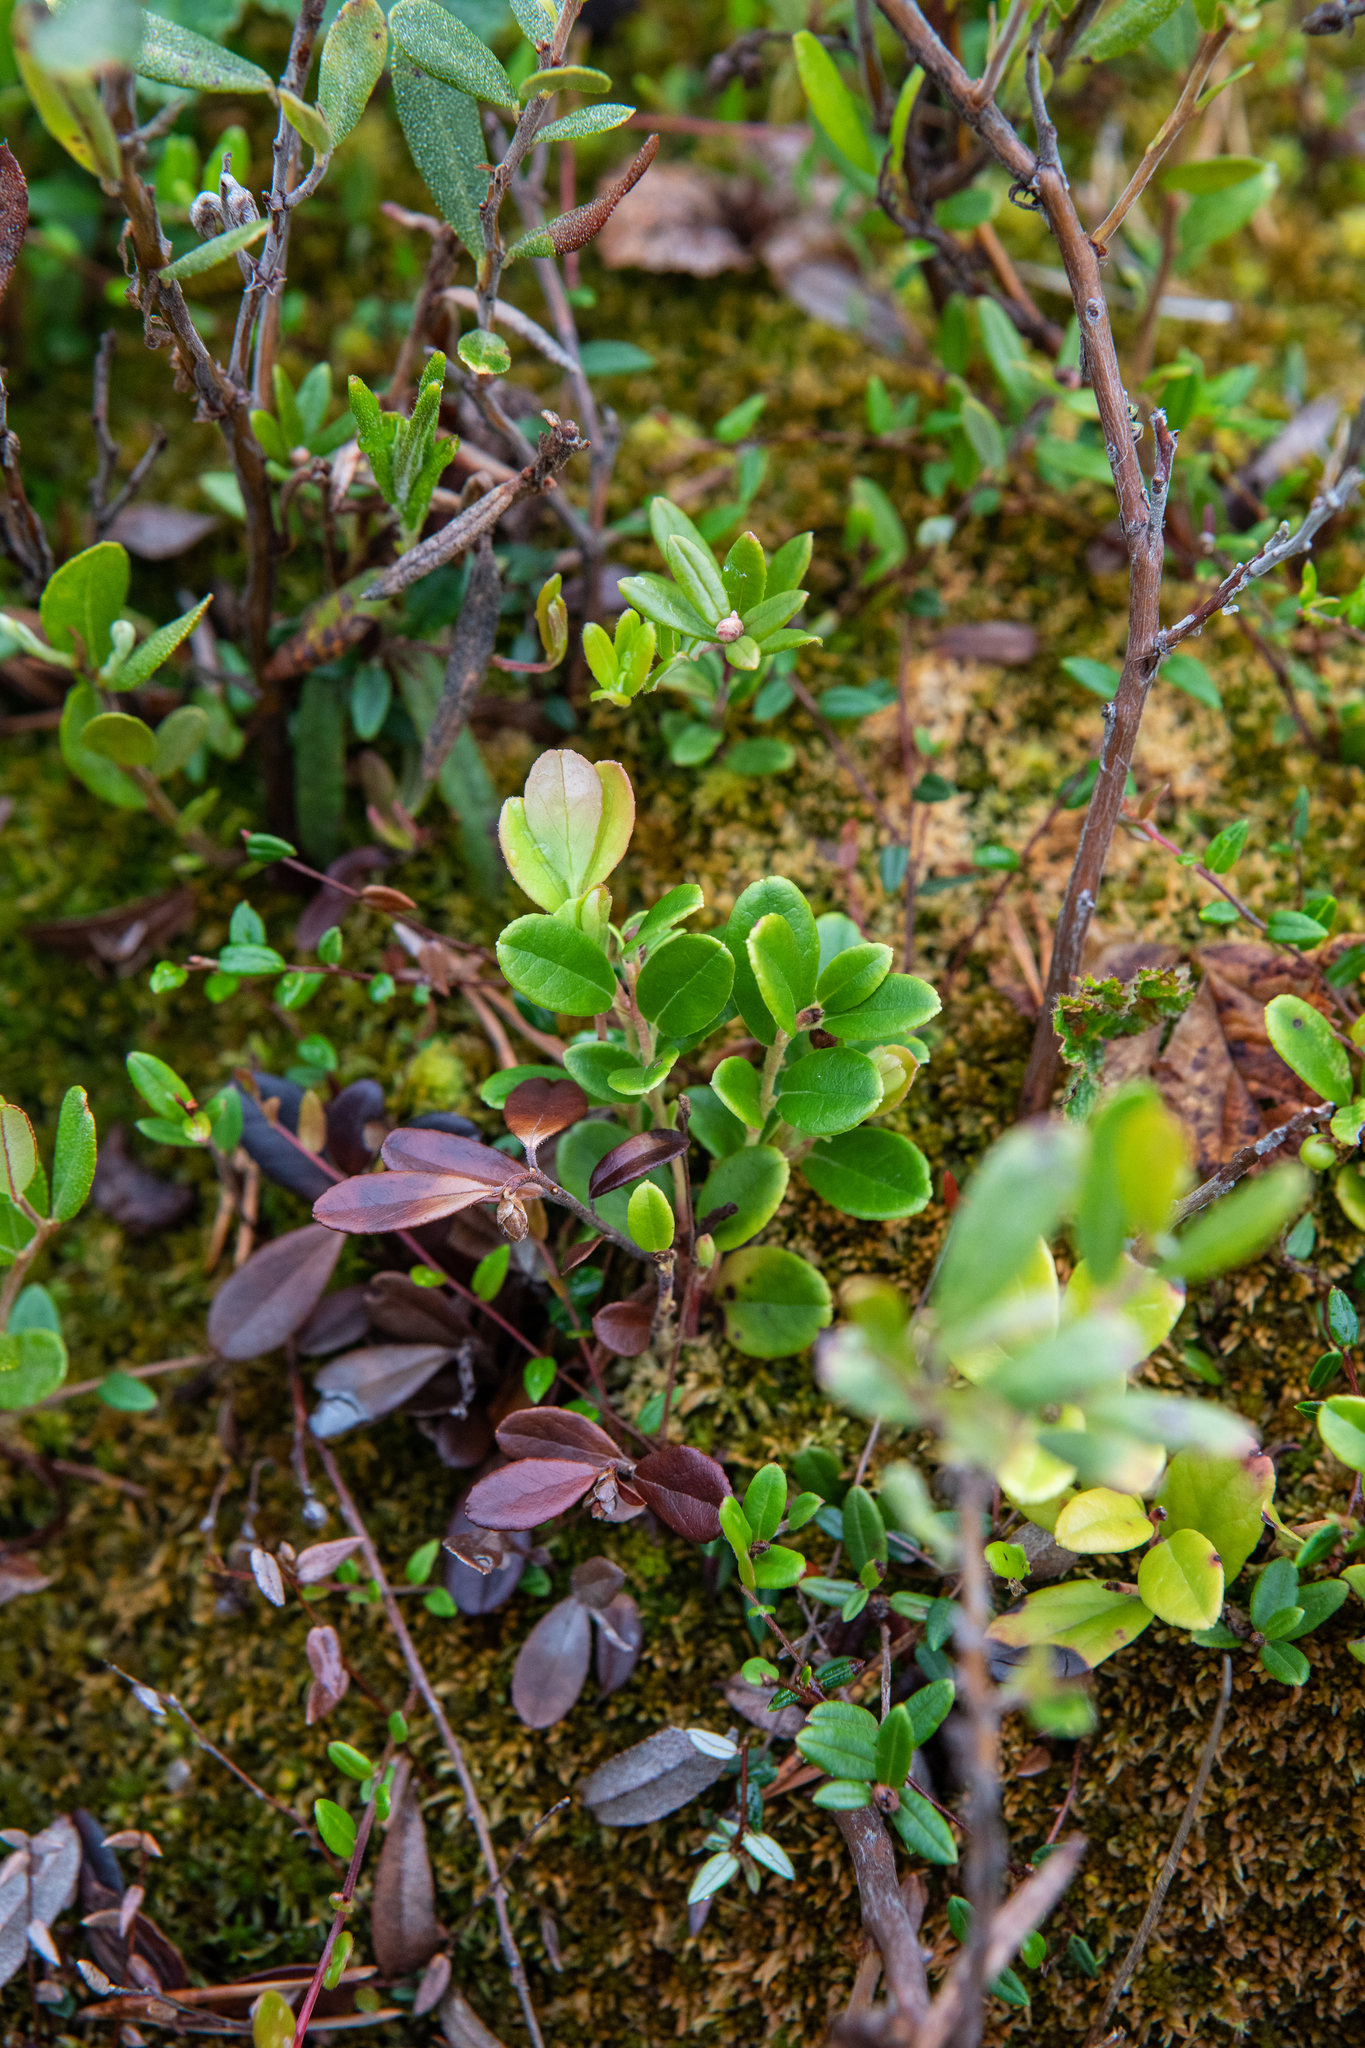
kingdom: Plantae
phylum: Tracheophyta
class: Magnoliopsida
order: Ericales
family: Ericaceae
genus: Vaccinium
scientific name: Vaccinium vitis-idaea
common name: Cowberry
